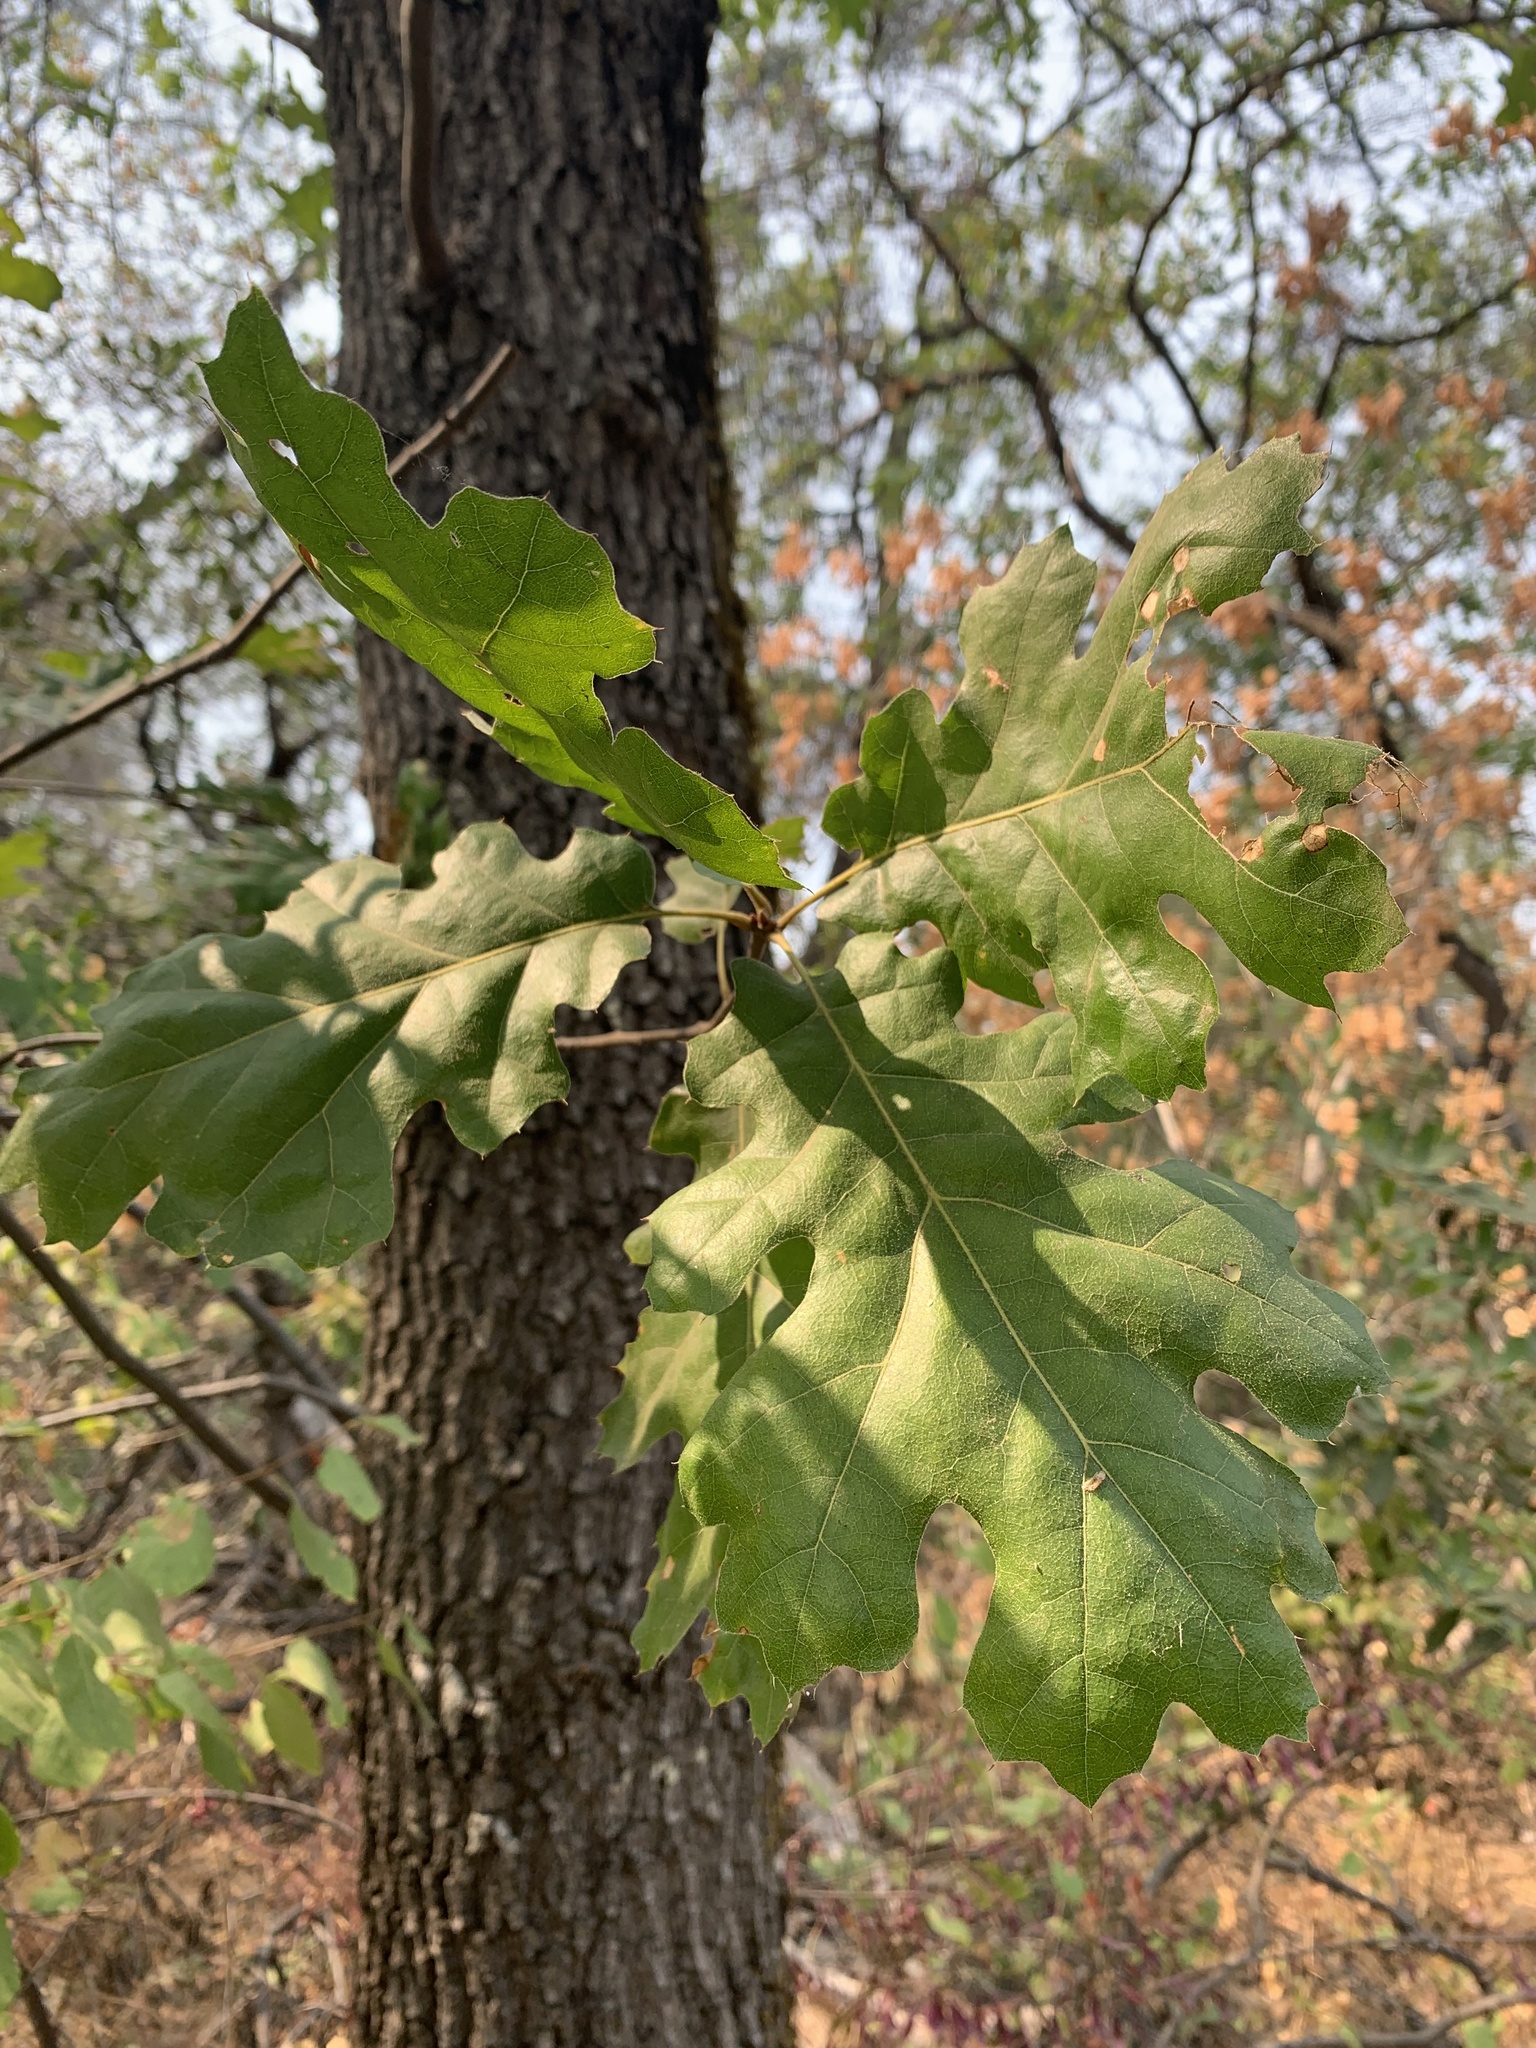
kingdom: Plantae
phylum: Tracheophyta
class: Magnoliopsida
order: Fagales
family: Fagaceae
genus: Quercus
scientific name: Quercus kelloggii
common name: California black oak
